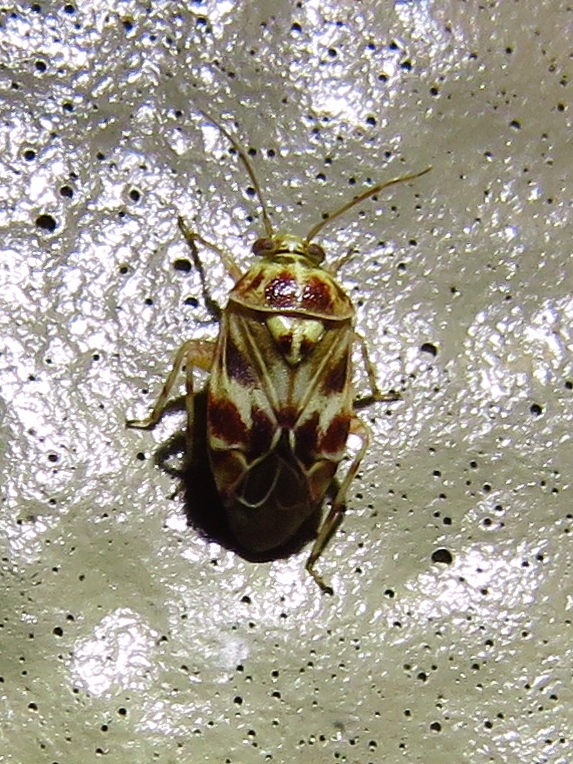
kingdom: Animalia
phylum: Arthropoda
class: Insecta
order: Hemiptera
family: Miridae
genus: Tropidosteptes
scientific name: Tropidosteptes quercicola
